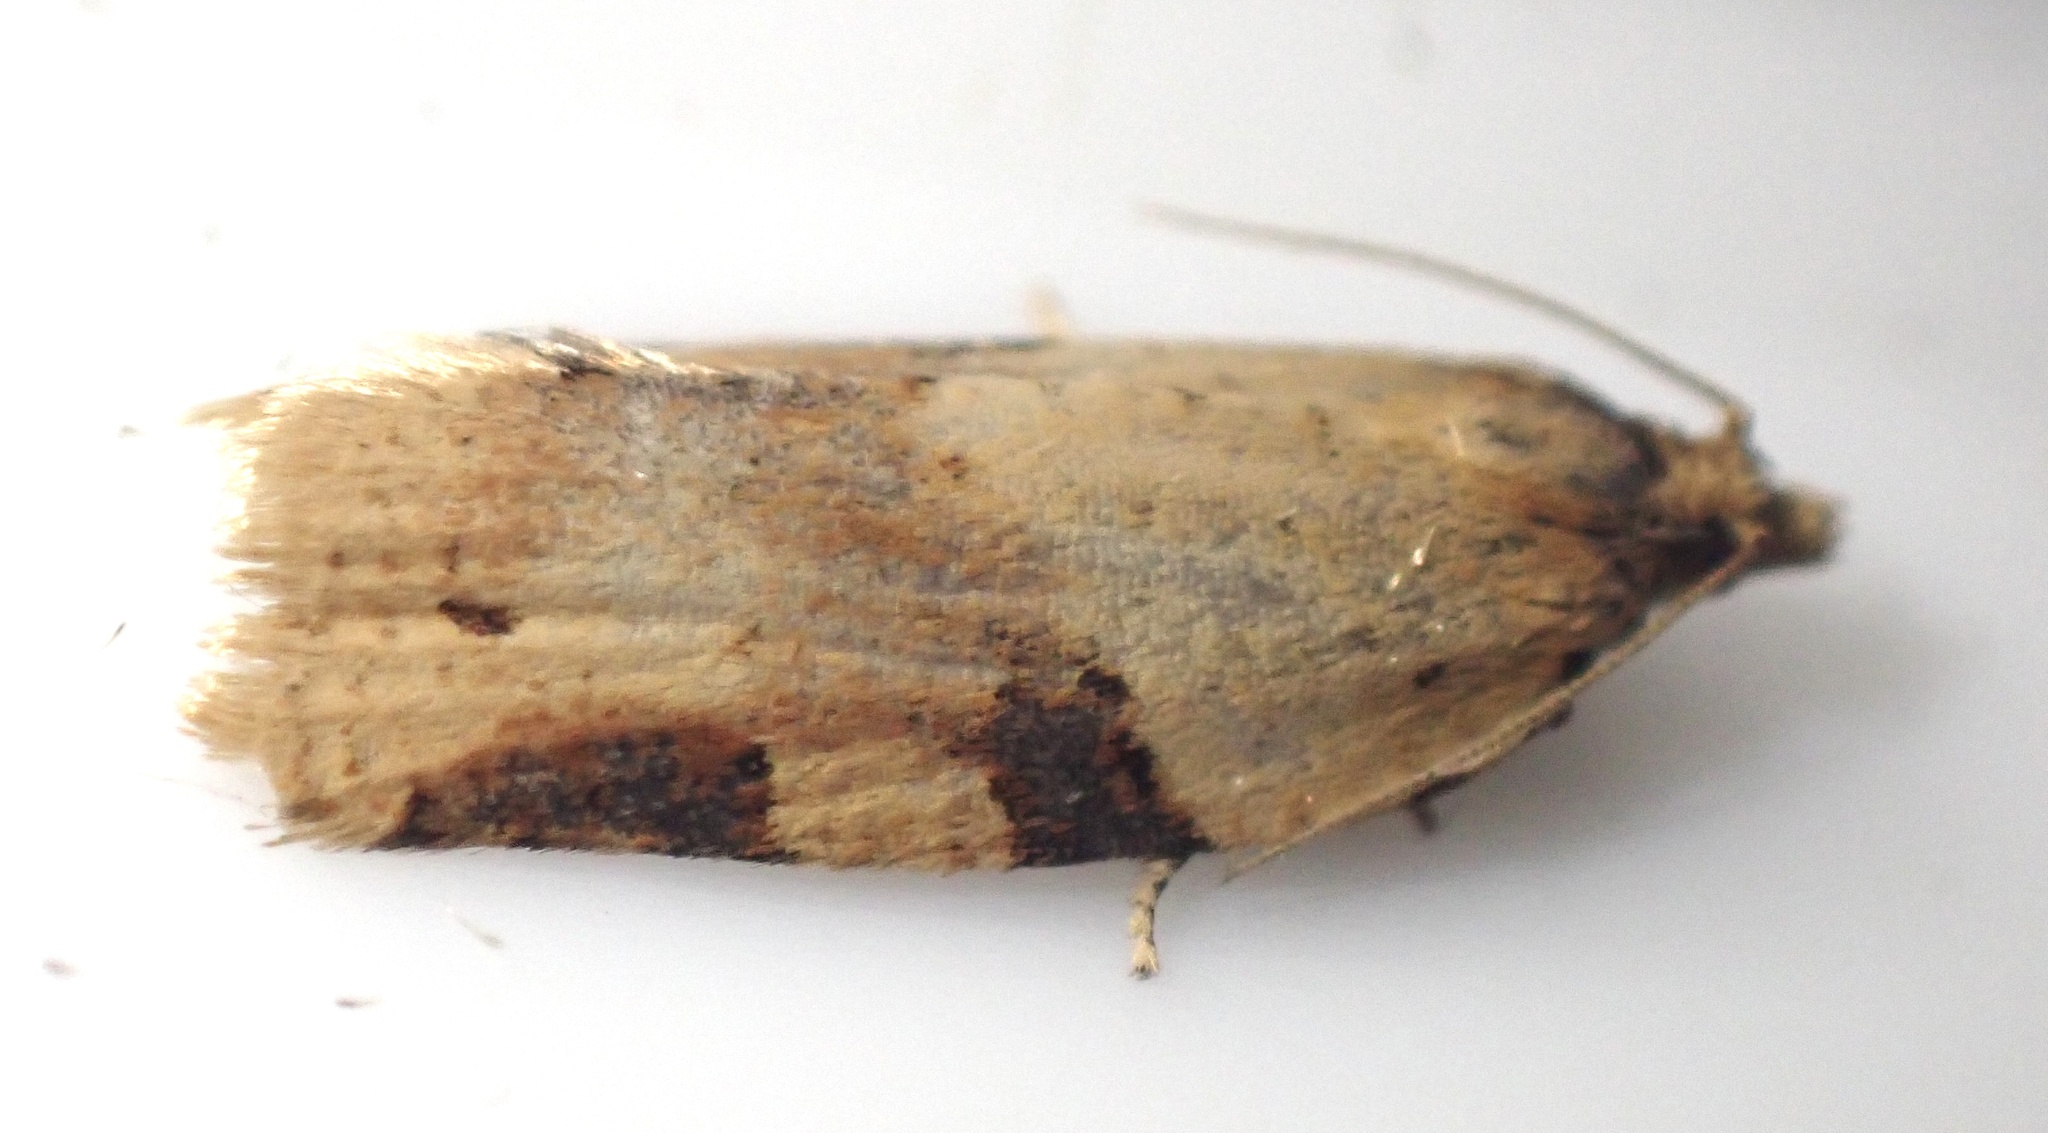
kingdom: Animalia
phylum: Arthropoda
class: Insecta
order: Lepidoptera
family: Tortricidae
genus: Clepsis
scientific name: Clepsis spectrana
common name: Cyclamen tortrix
